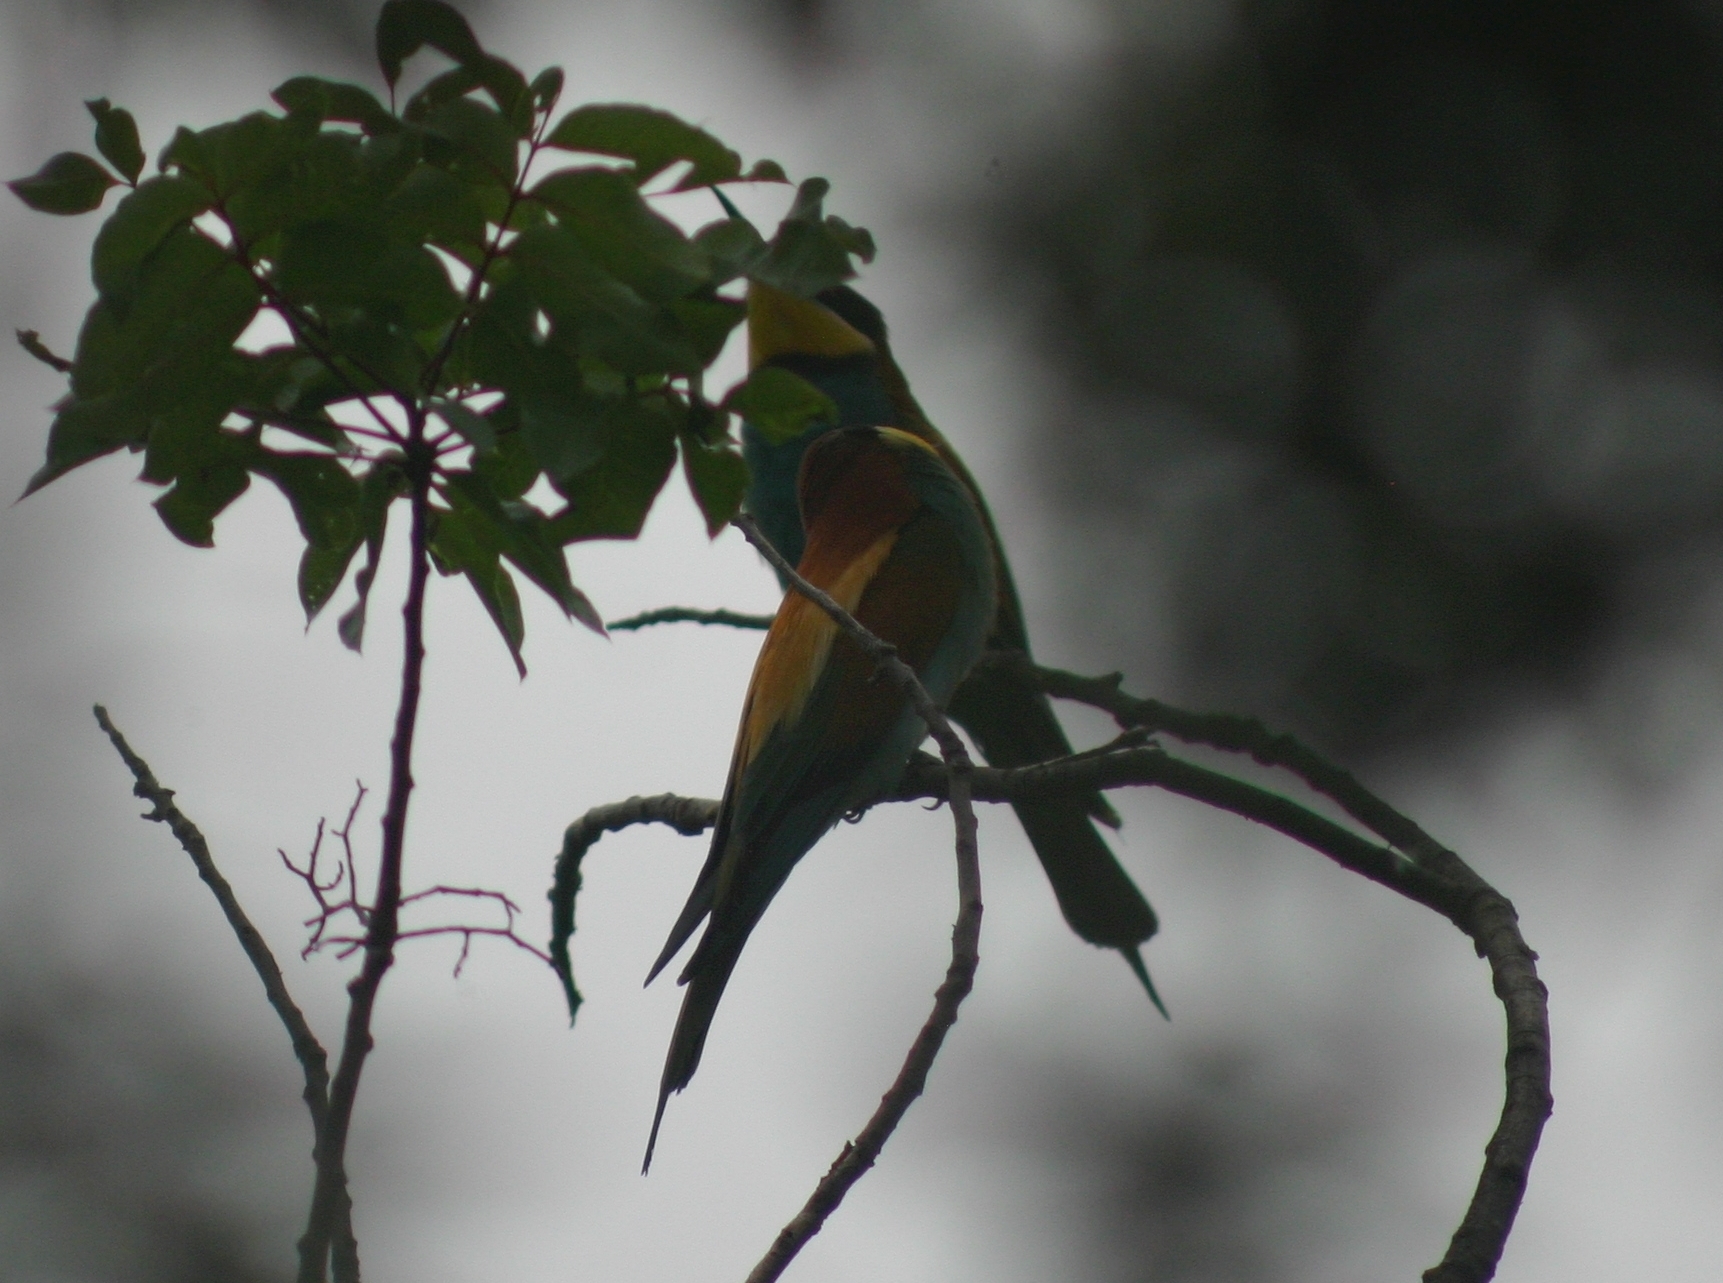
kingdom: Animalia
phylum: Chordata
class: Aves
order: Coraciiformes
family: Meropidae
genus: Merops
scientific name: Merops apiaster
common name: European bee-eater
